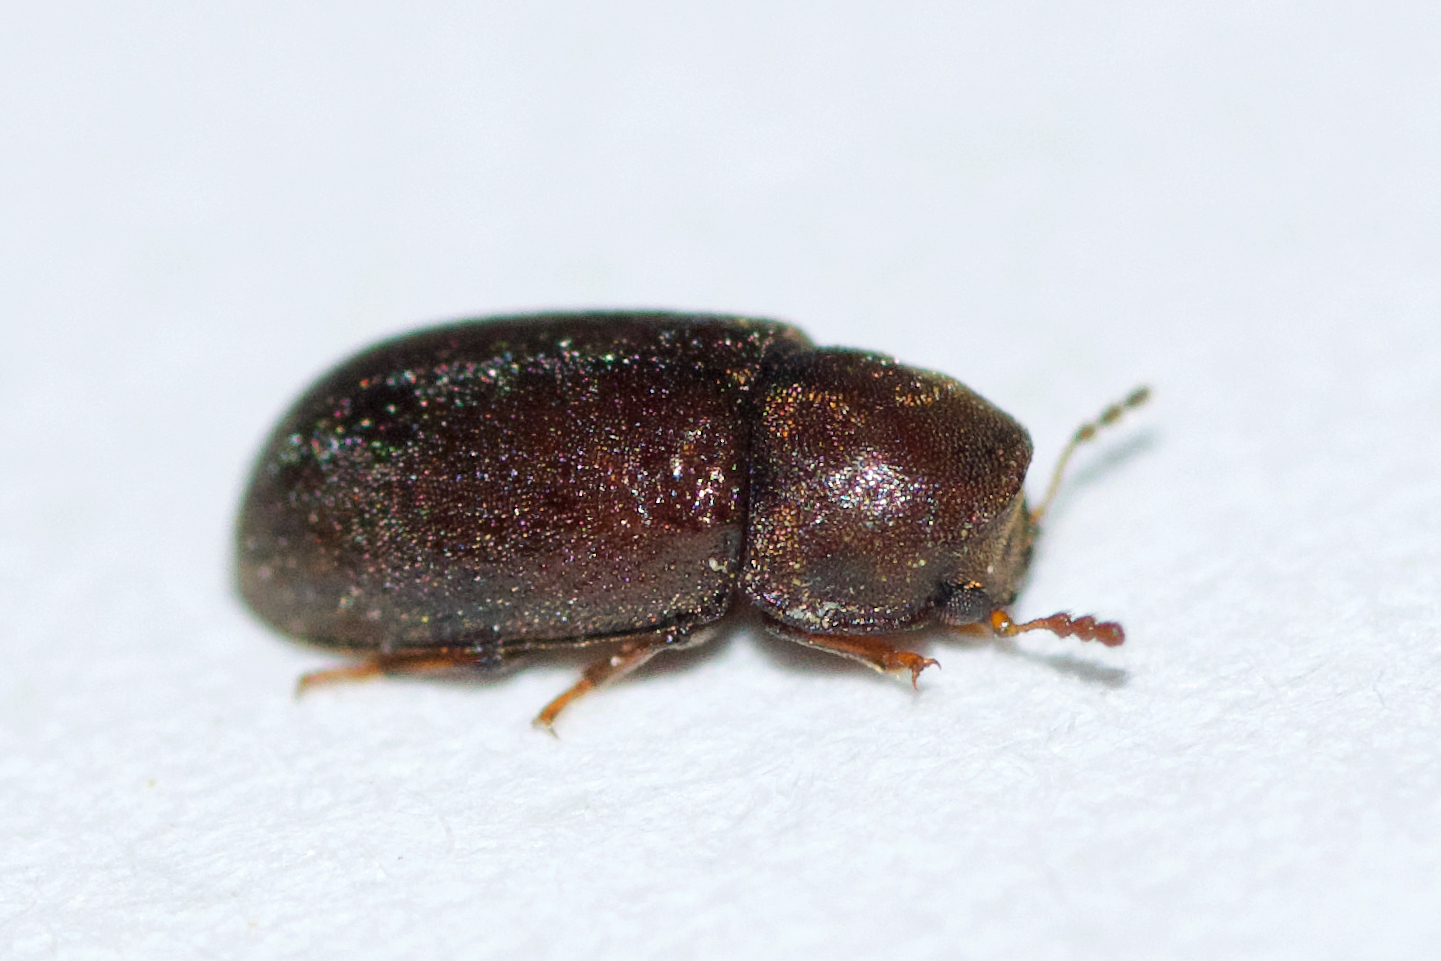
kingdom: Animalia
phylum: Arthropoda
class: Insecta
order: Coleoptera
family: Ciidae
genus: Cis
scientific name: Cis boleti
